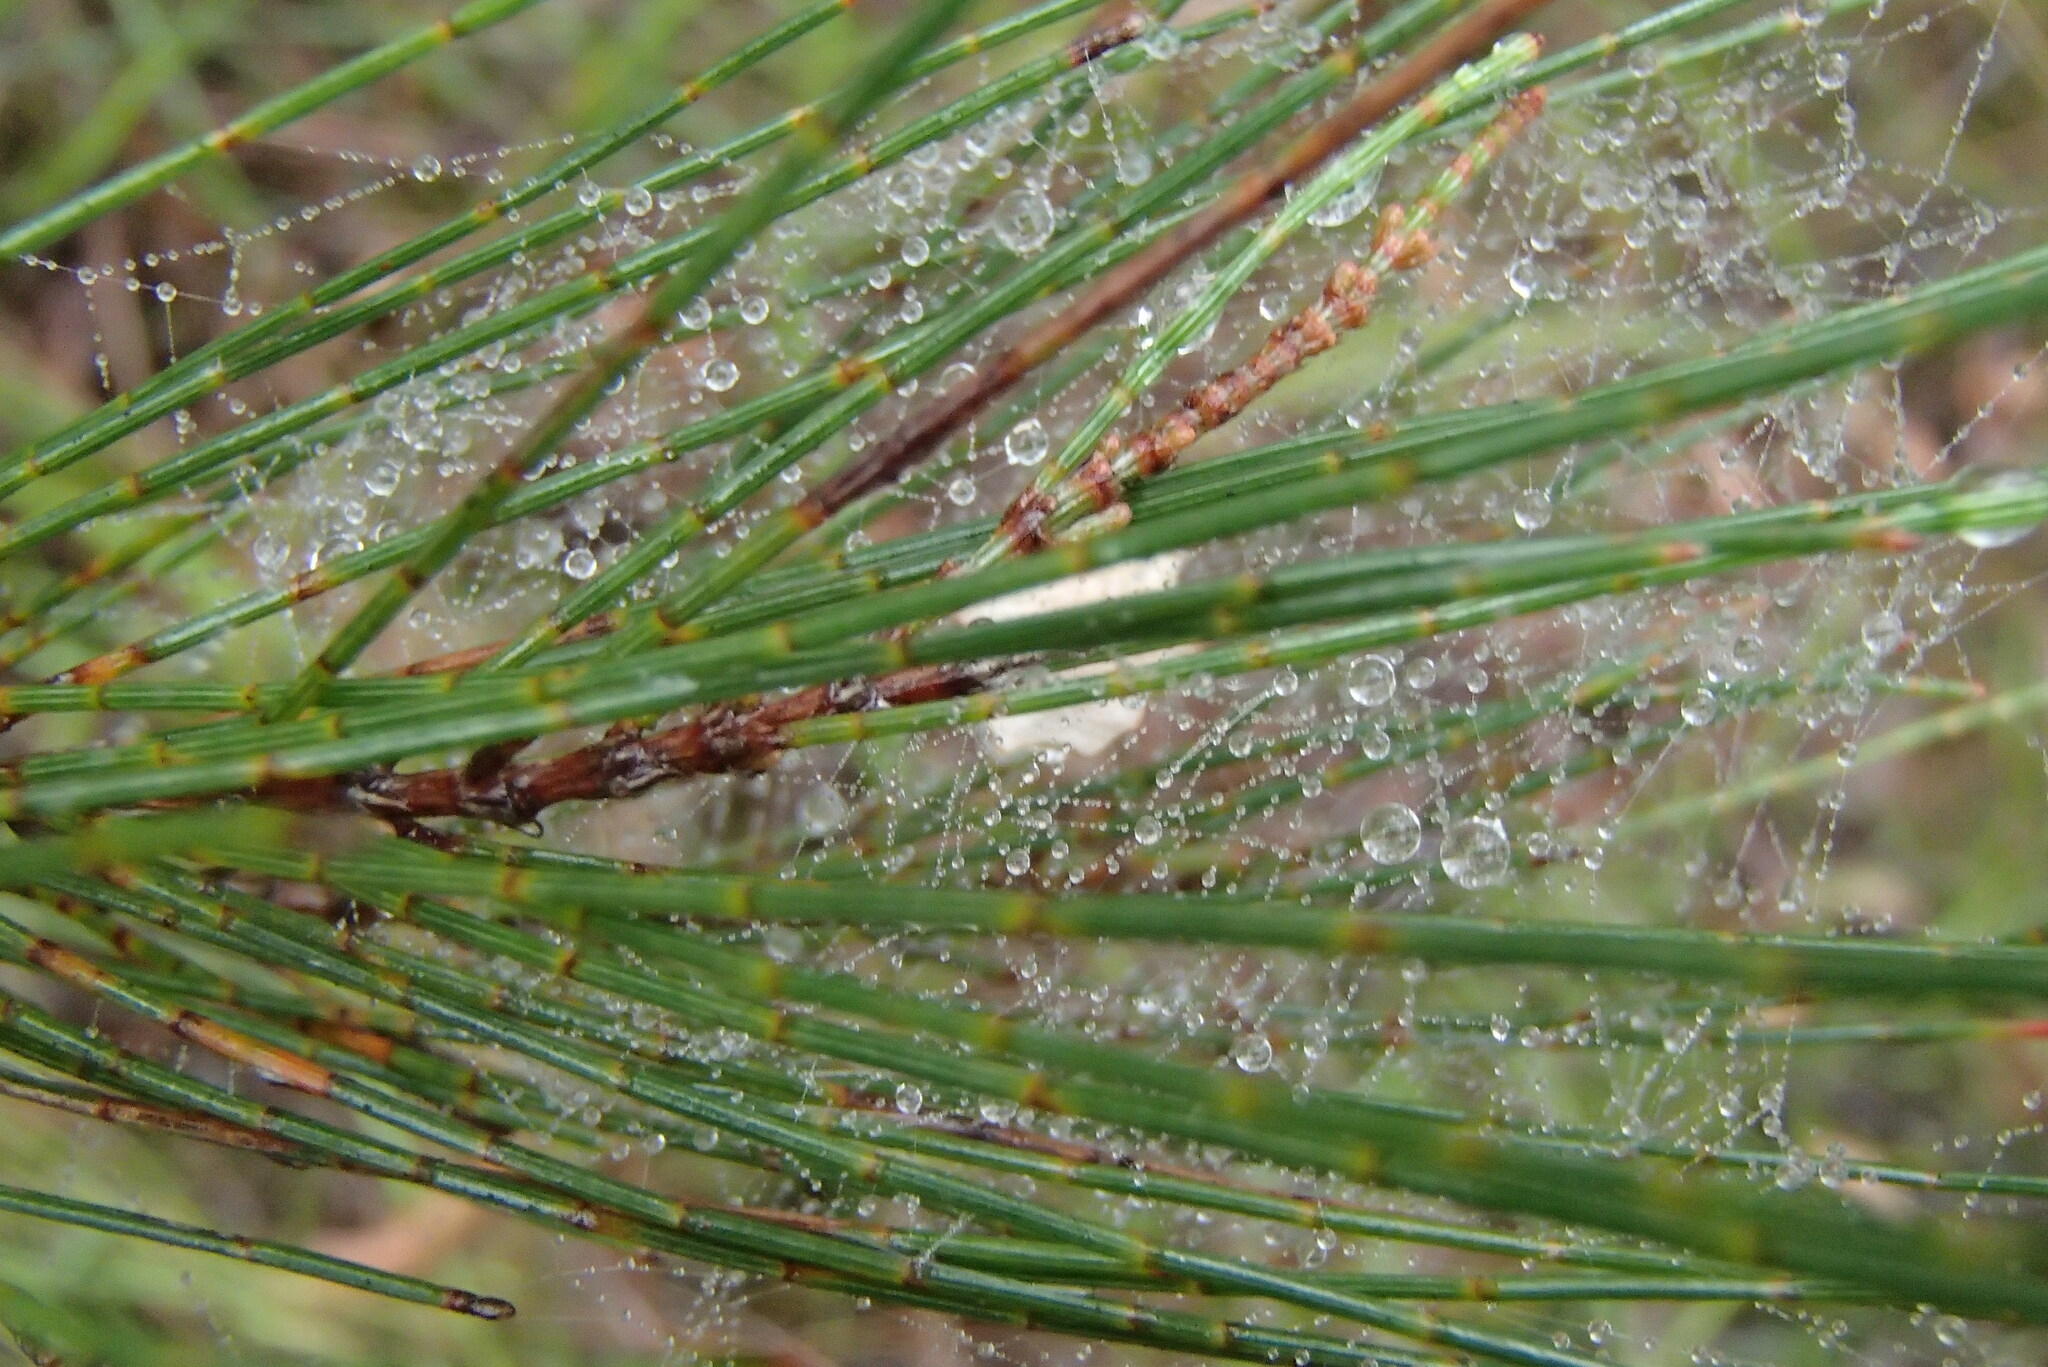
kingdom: Animalia
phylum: Arthropoda
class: Arachnida
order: Araneae
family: Uloboridae
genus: Zosis
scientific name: Zosis geniculata
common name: Hackled orb weavers
